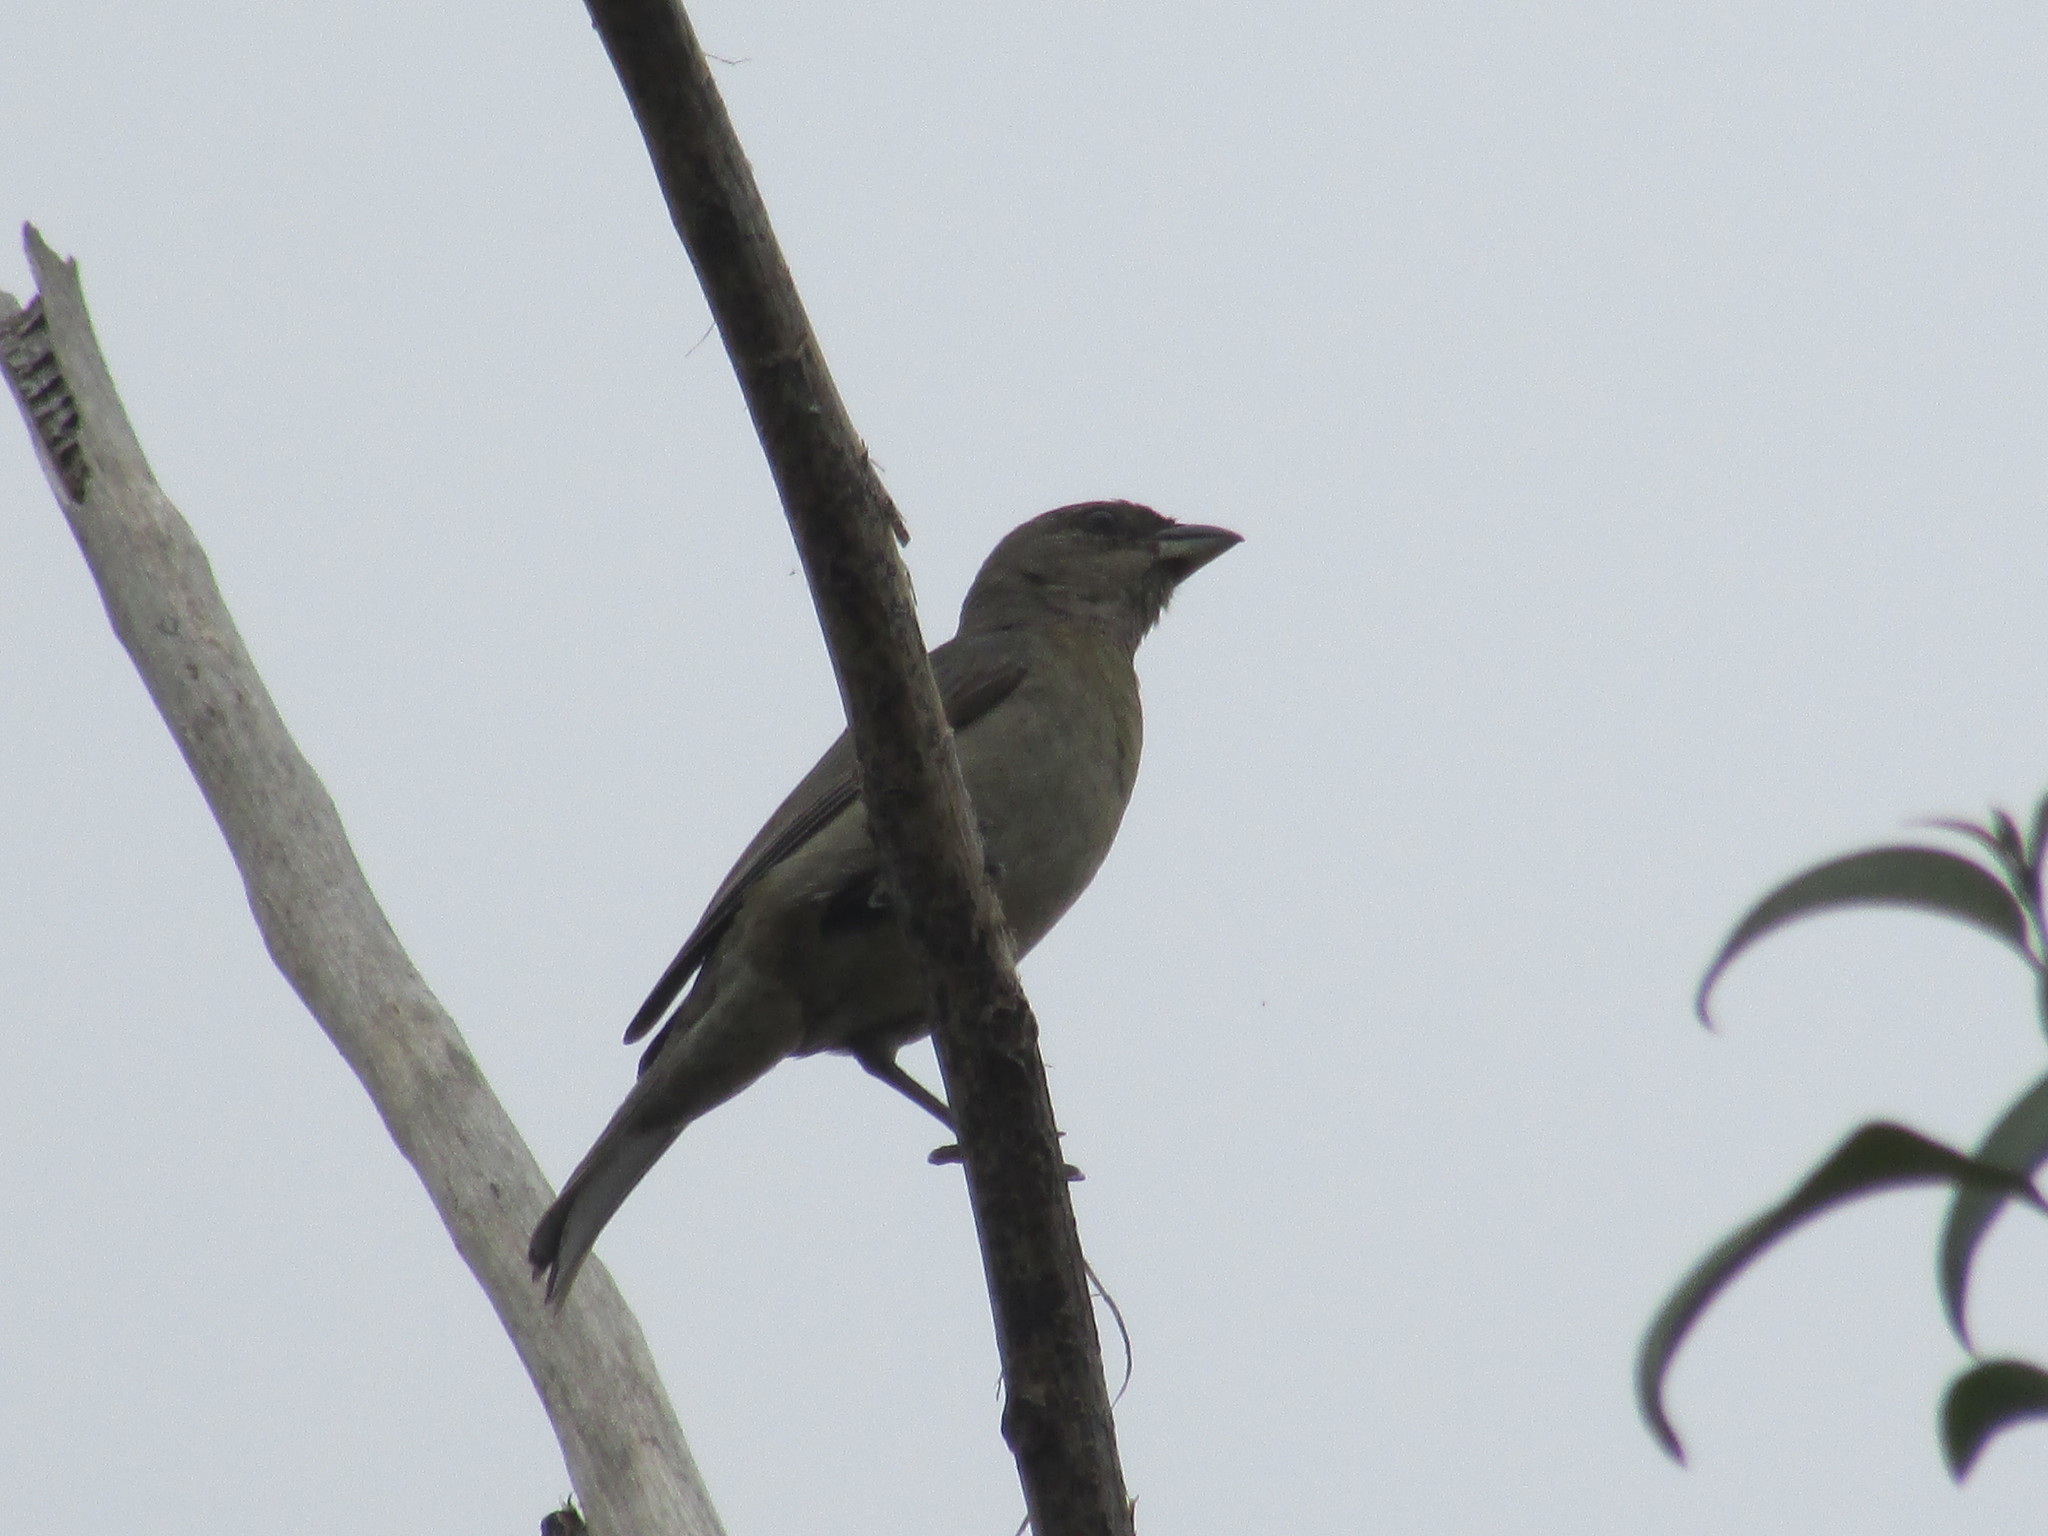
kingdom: Animalia
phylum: Chordata
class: Aves
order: Passeriformes
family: Thraupidae
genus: Rauenia
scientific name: Rauenia bonariensis
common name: Blue-and-yellow tanager
